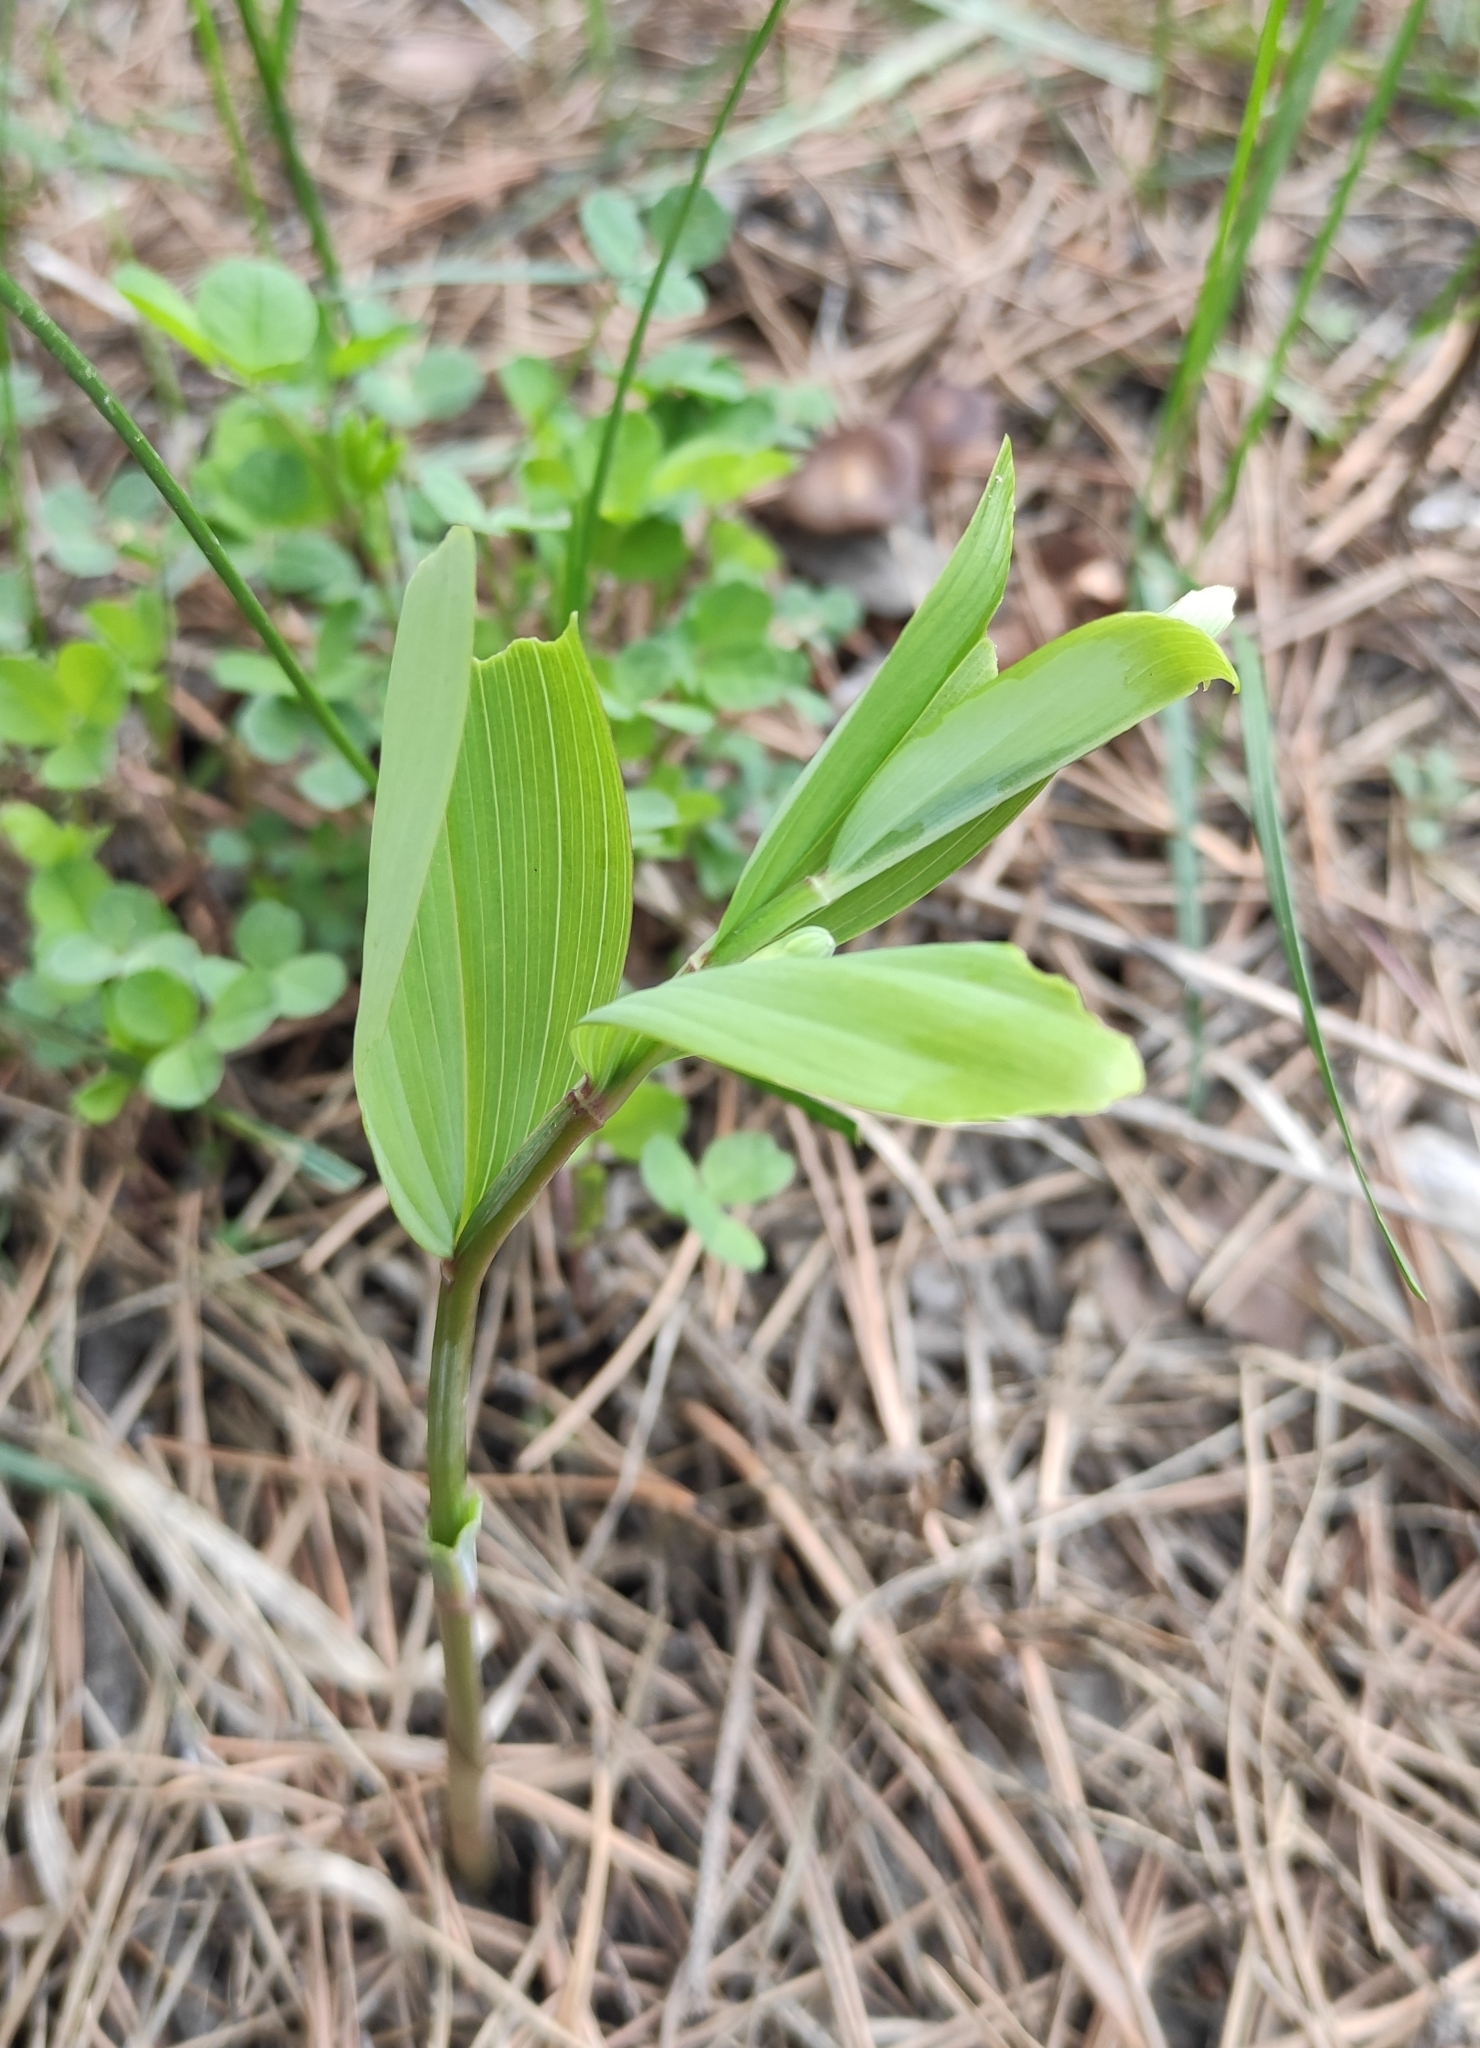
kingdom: Plantae
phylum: Tracheophyta
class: Liliopsida
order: Asparagales
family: Asparagaceae
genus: Polygonatum
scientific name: Polygonatum odoratum
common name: Angular solomon's-seal
